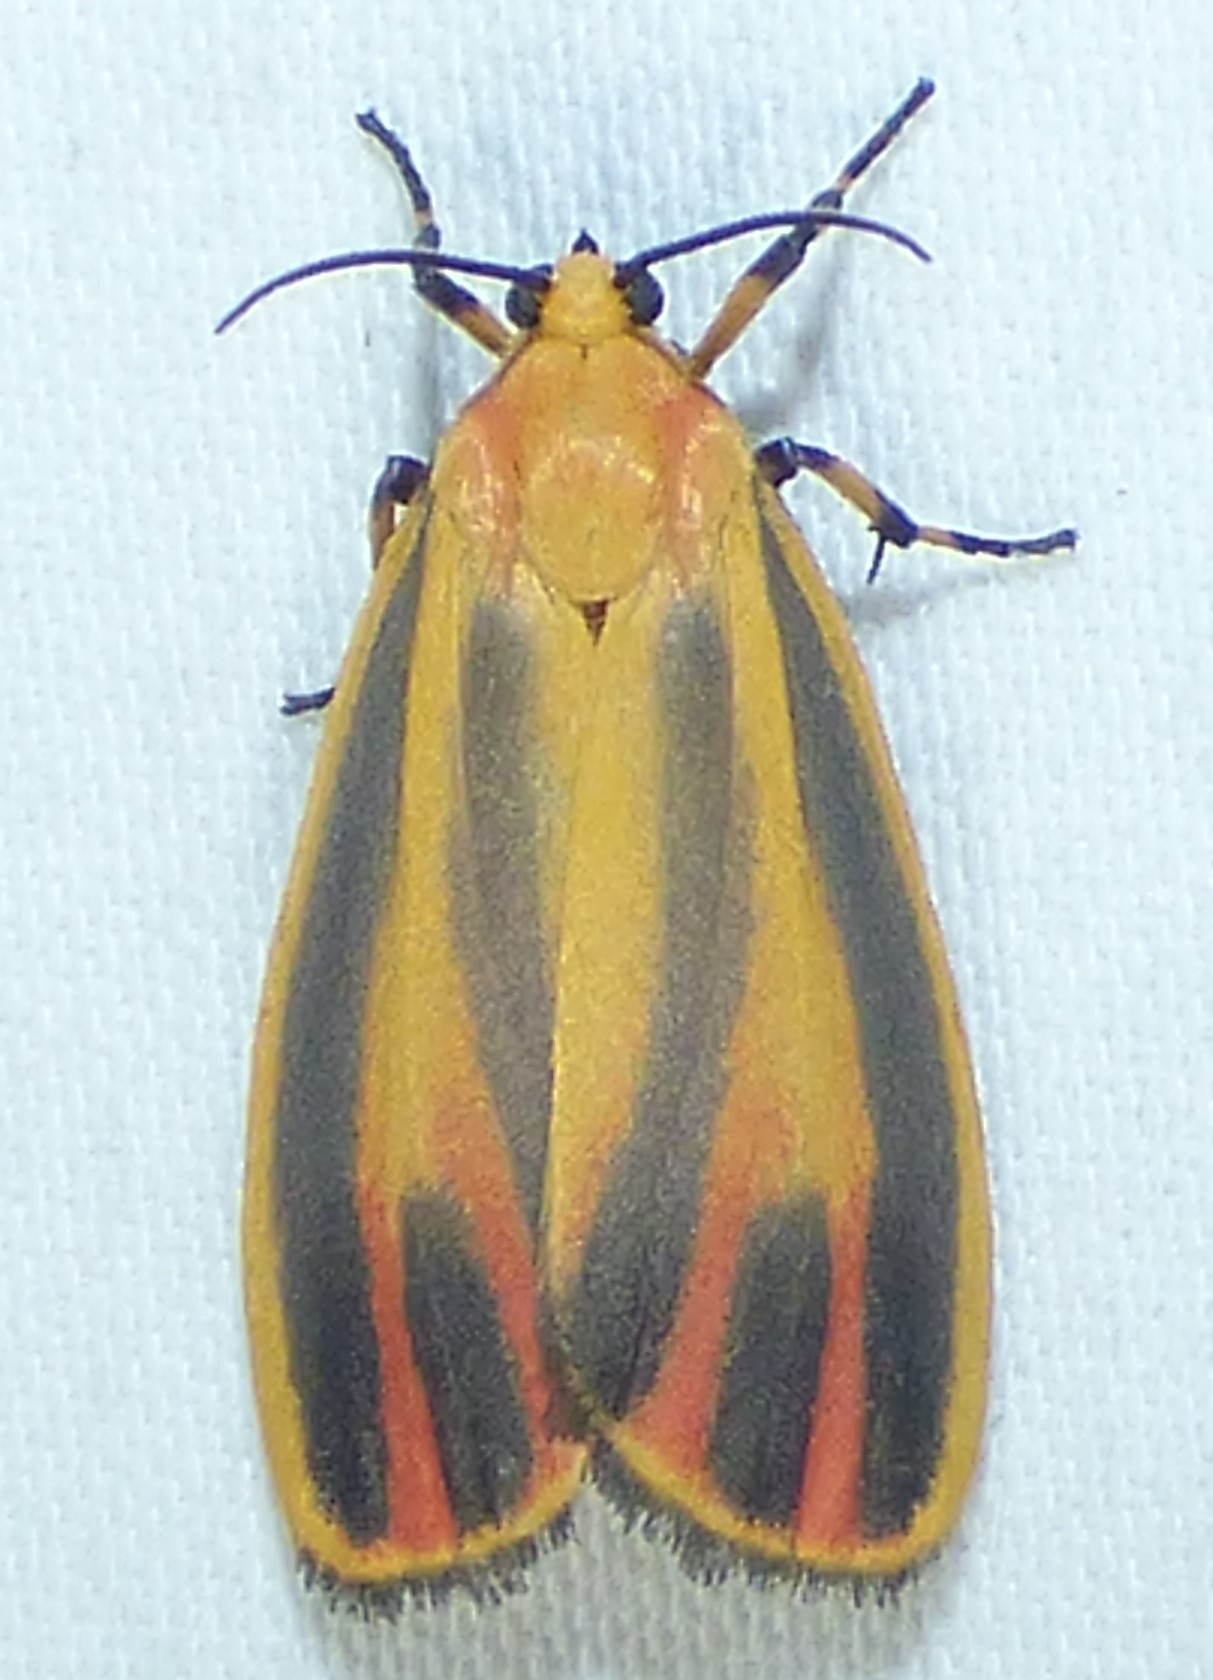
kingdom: Animalia
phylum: Arthropoda
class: Insecta
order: Lepidoptera
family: Erebidae
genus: Hypoprepia
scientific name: Hypoprepia fucosa
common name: Painted lichen moth
